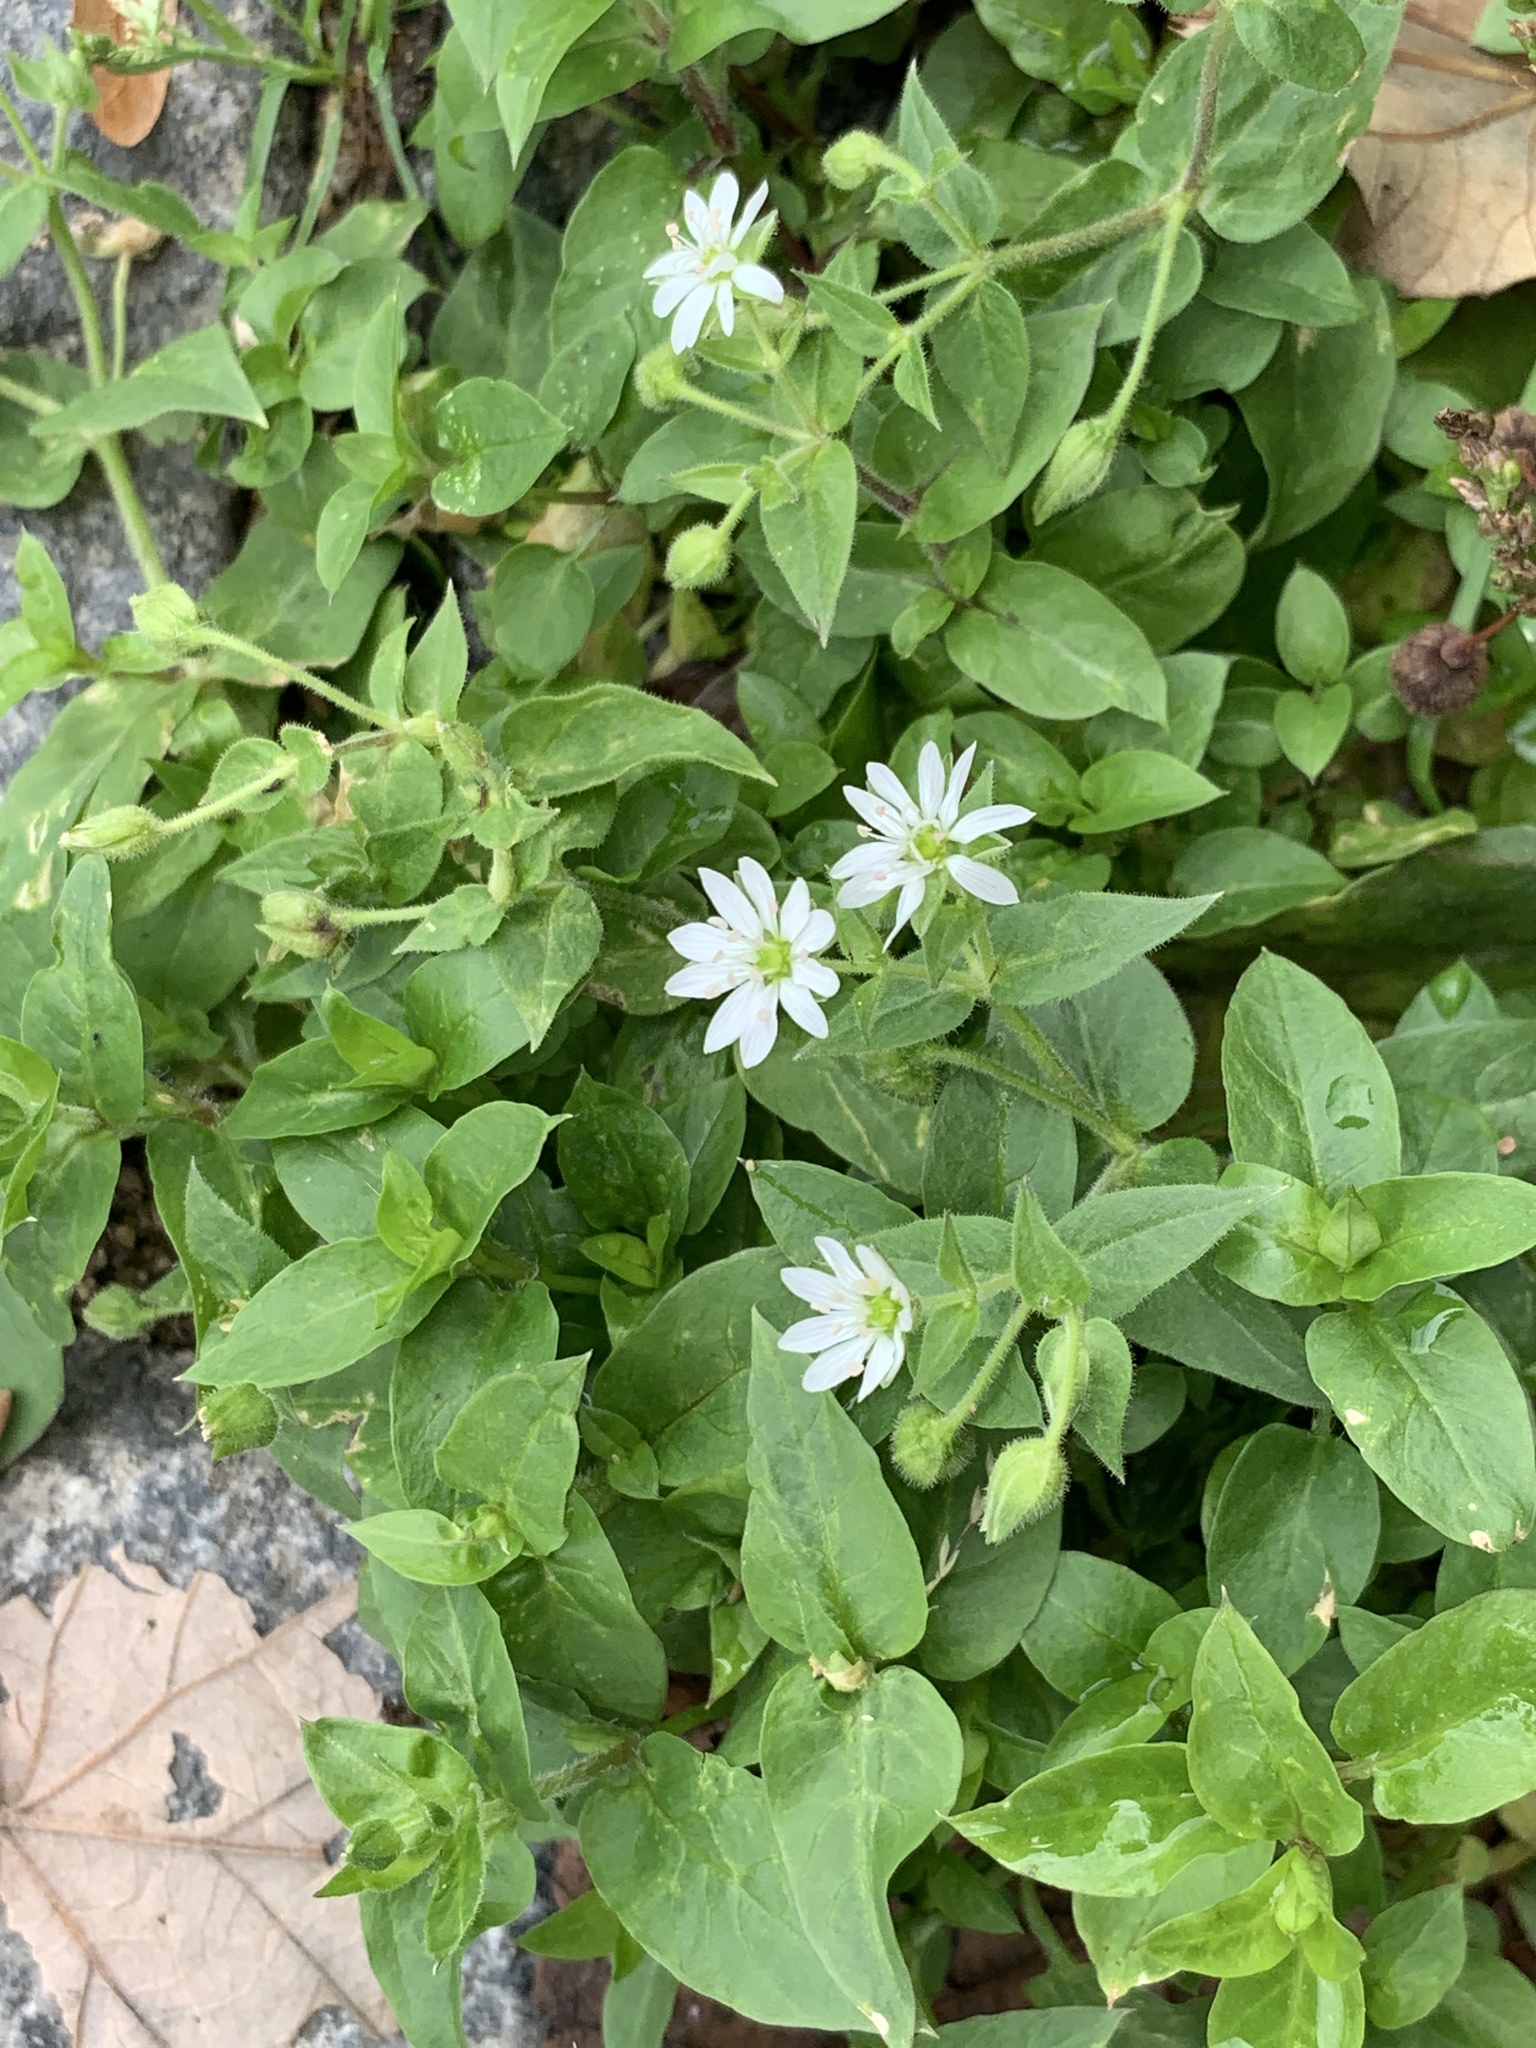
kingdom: Plantae
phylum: Tracheophyta
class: Magnoliopsida
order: Caryophyllales
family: Caryophyllaceae
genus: Stellaria
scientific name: Stellaria aquatica
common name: Water chickweed
